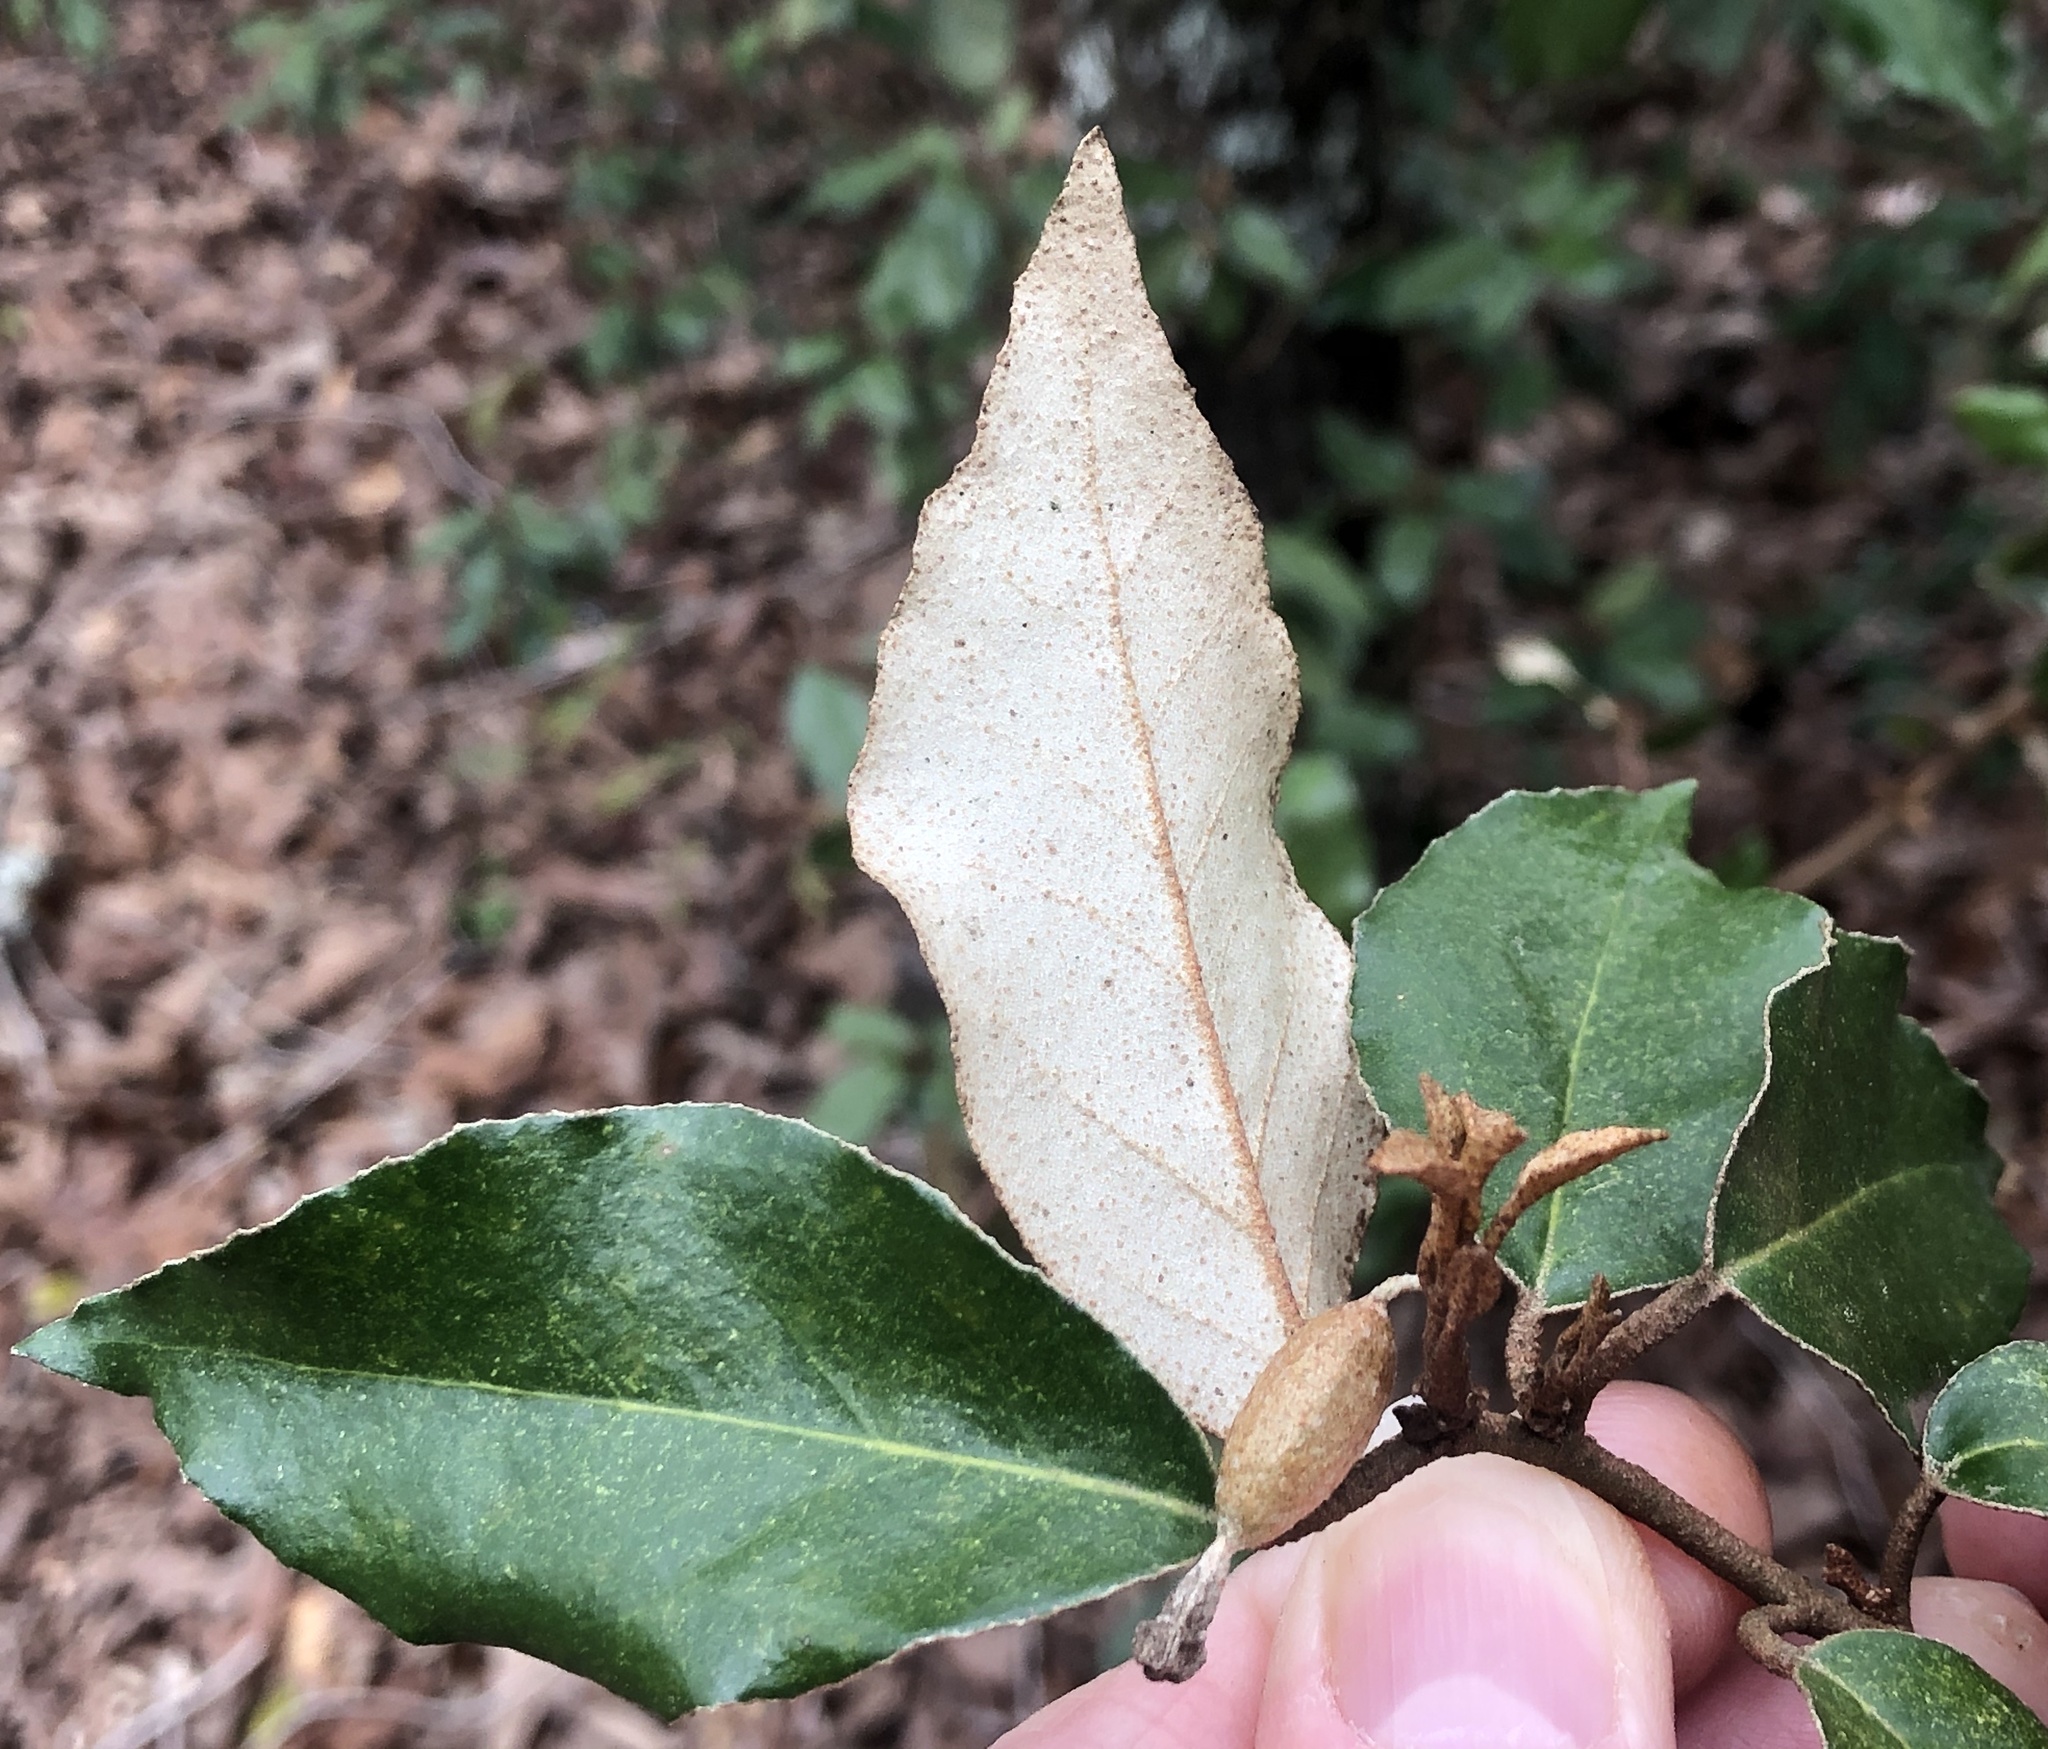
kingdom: Plantae
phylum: Tracheophyta
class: Magnoliopsida
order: Rosales
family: Elaeagnaceae
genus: Elaeagnus
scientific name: Elaeagnus pungens
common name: Spiny oleaster
